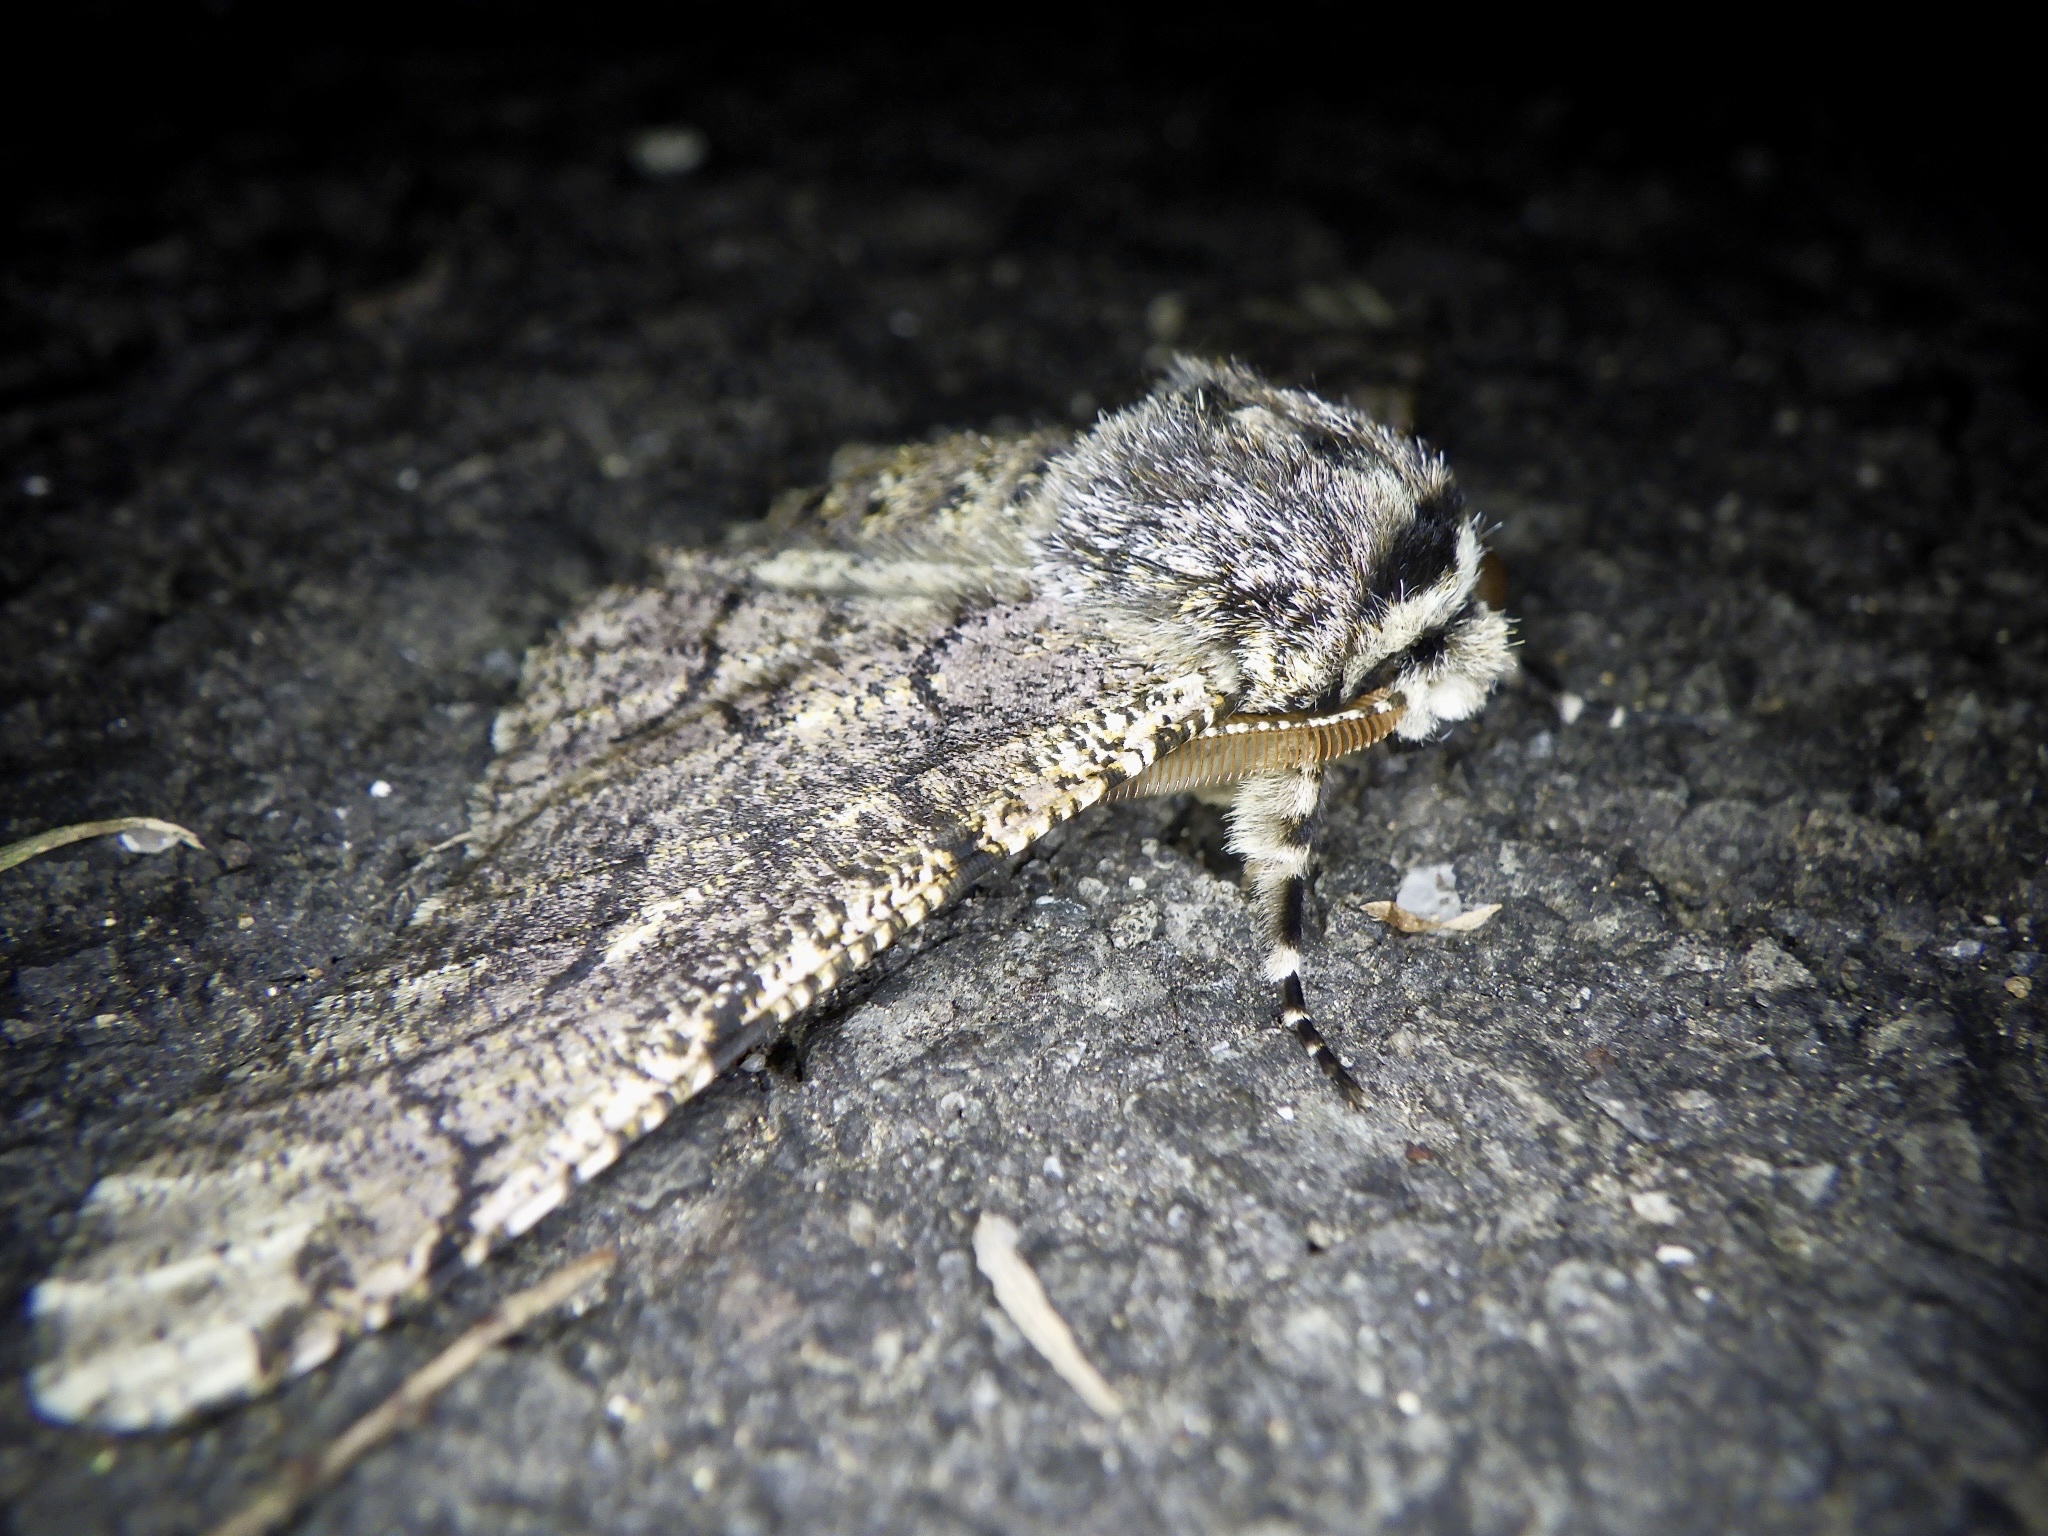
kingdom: Animalia
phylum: Arthropoda
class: Insecta
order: Lepidoptera
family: Geometridae
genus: Biston
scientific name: Biston robustum
